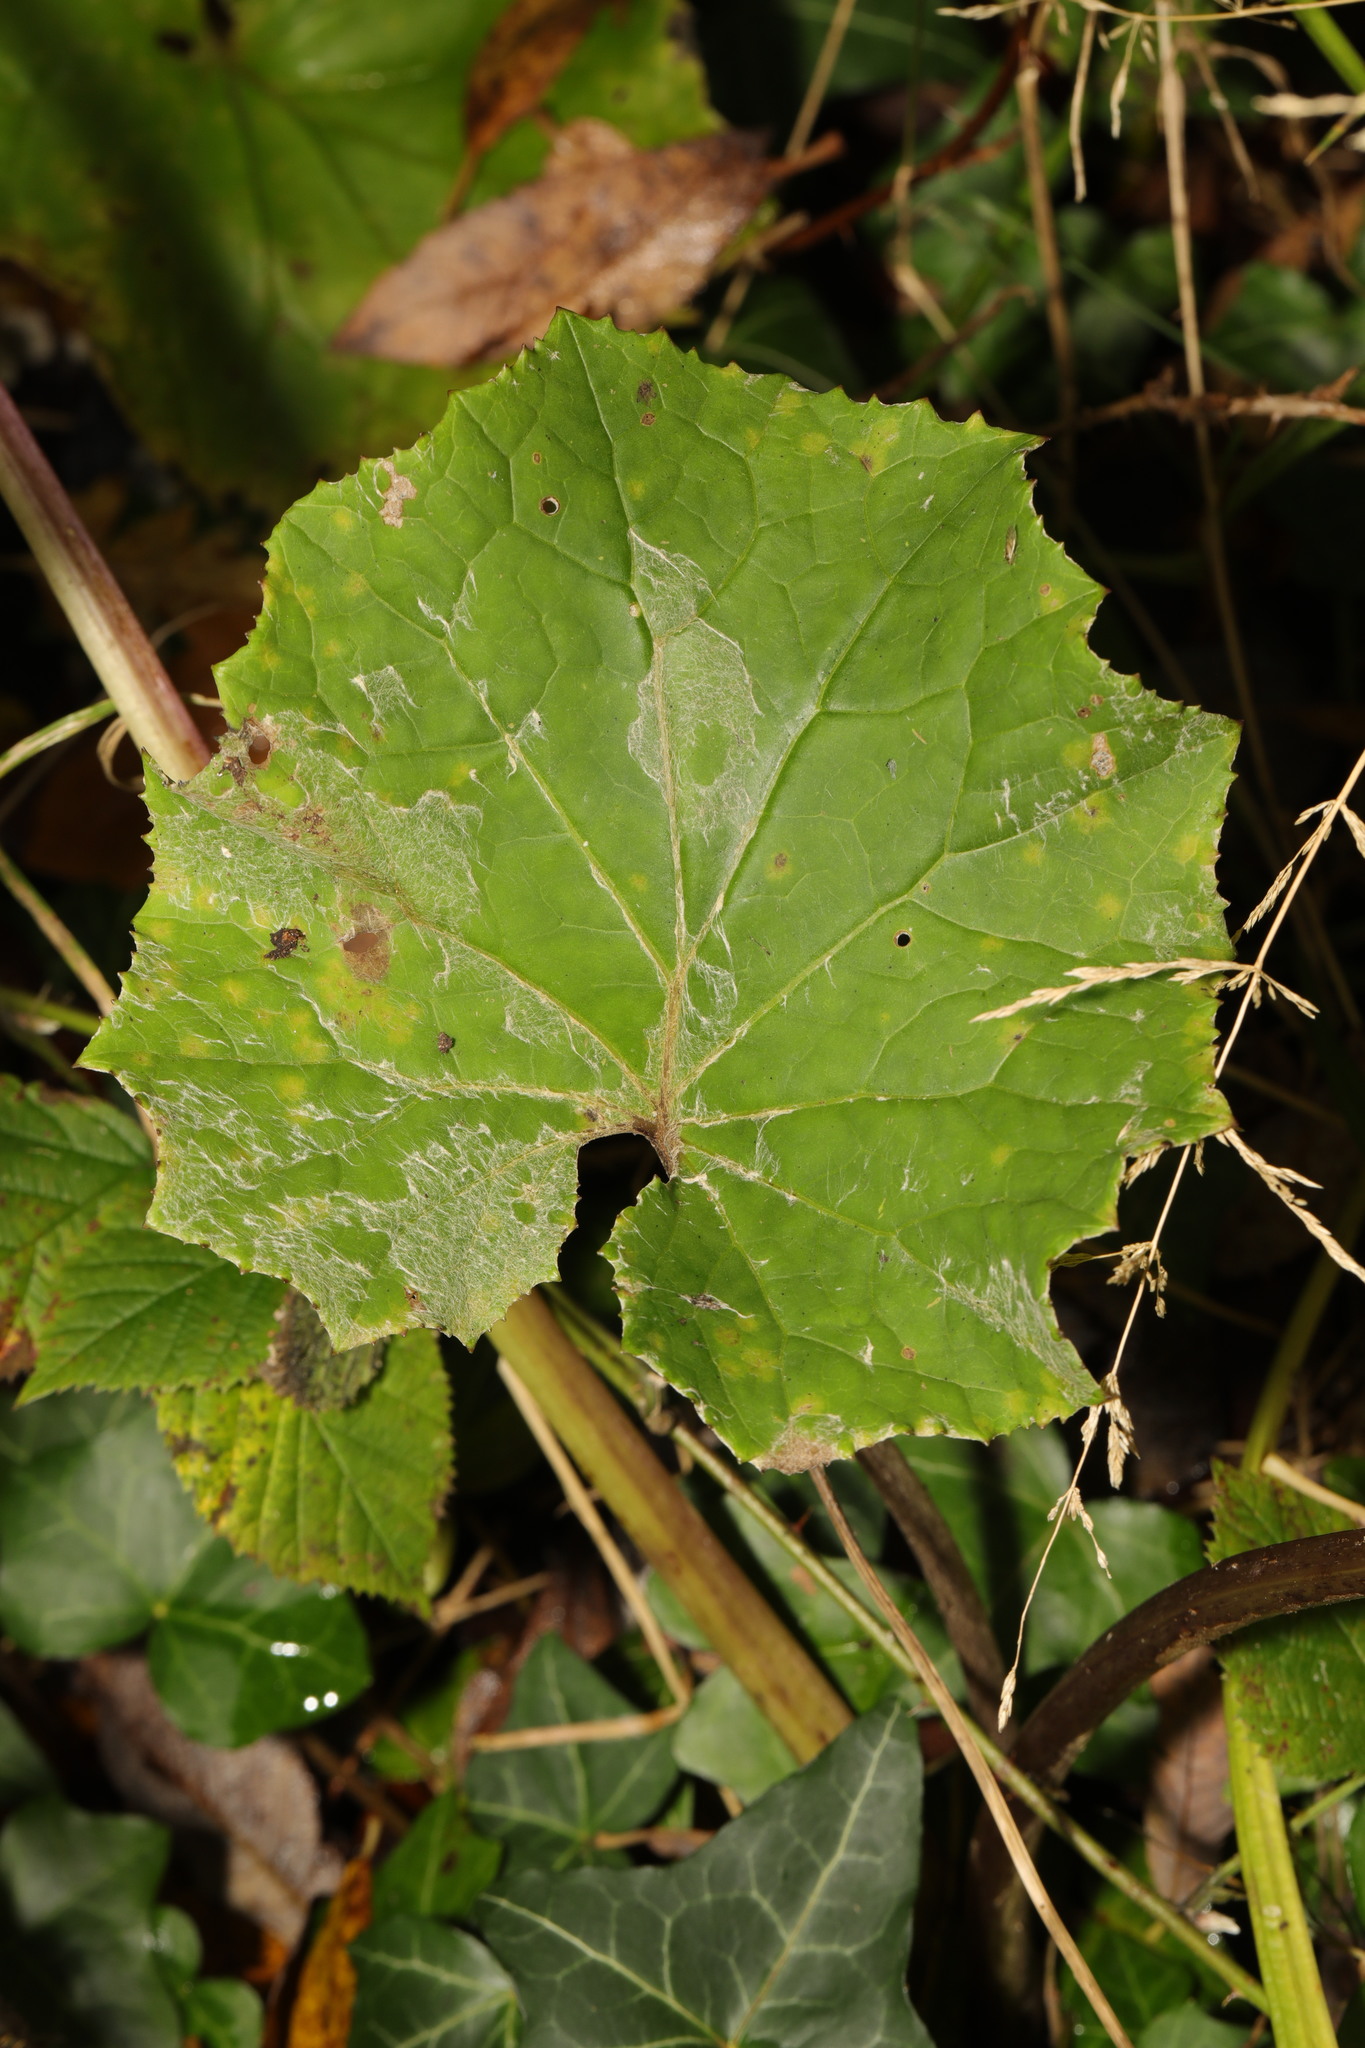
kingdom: Plantae
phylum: Tracheophyta
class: Magnoliopsida
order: Asterales
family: Asteraceae
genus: Tussilago
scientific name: Tussilago farfara
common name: Coltsfoot
